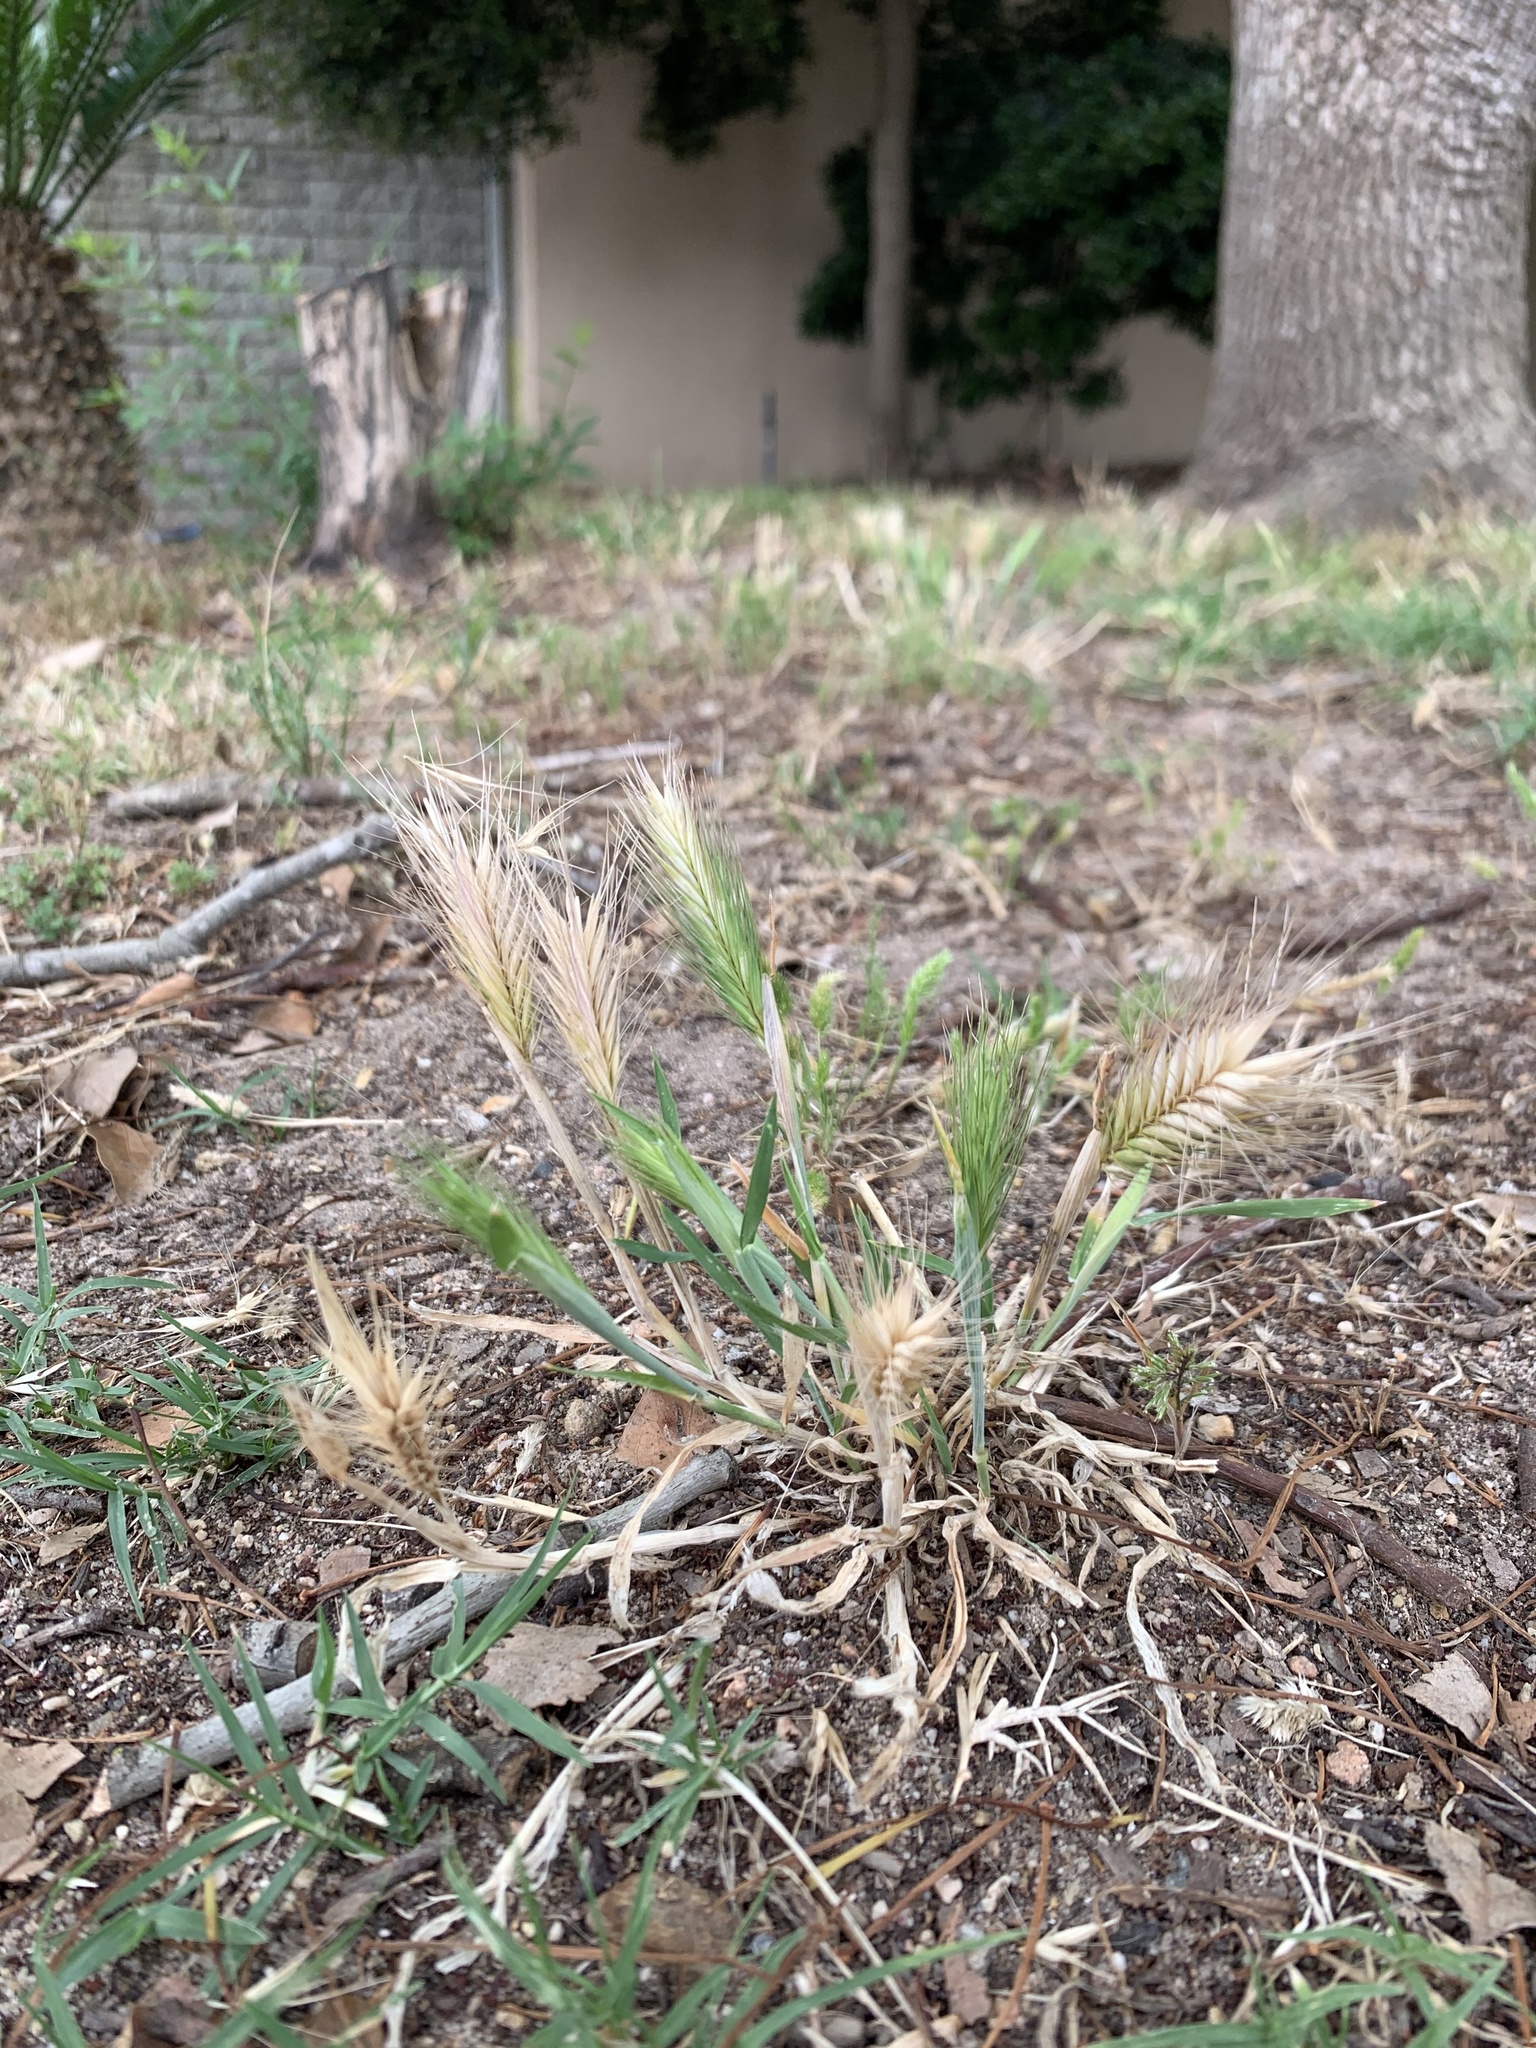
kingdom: Plantae
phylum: Tracheophyta
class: Liliopsida
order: Poales
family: Poaceae
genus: Hordeum
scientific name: Hordeum murinum
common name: Wall barley
